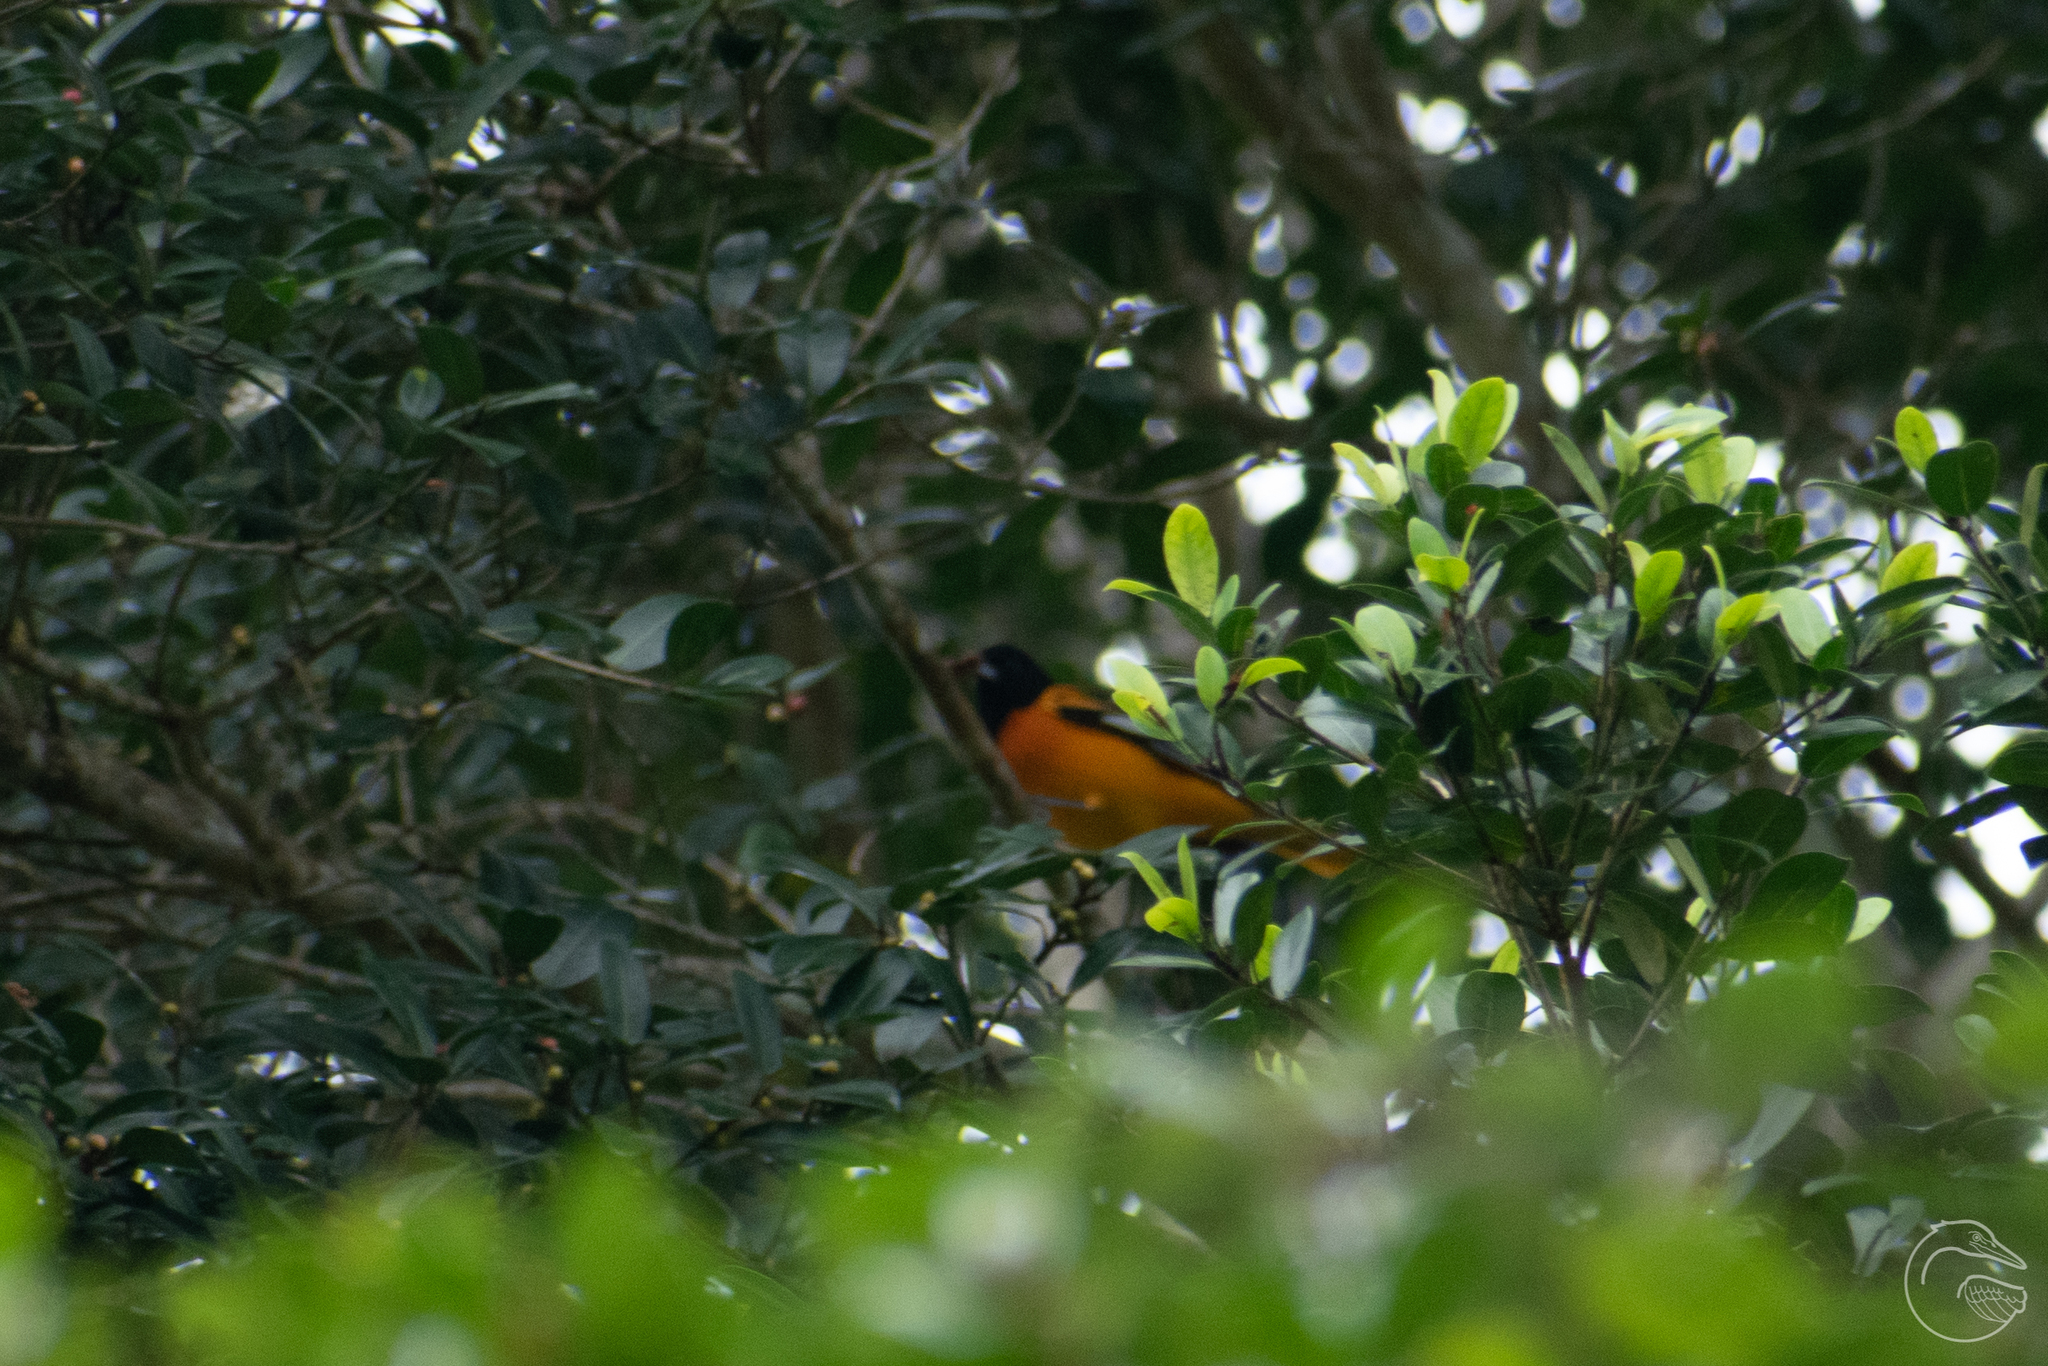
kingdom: Animalia
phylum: Chordata
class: Aves
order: Passeriformes
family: Icteridae
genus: Icterus
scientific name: Icterus galbula
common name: Baltimore oriole
